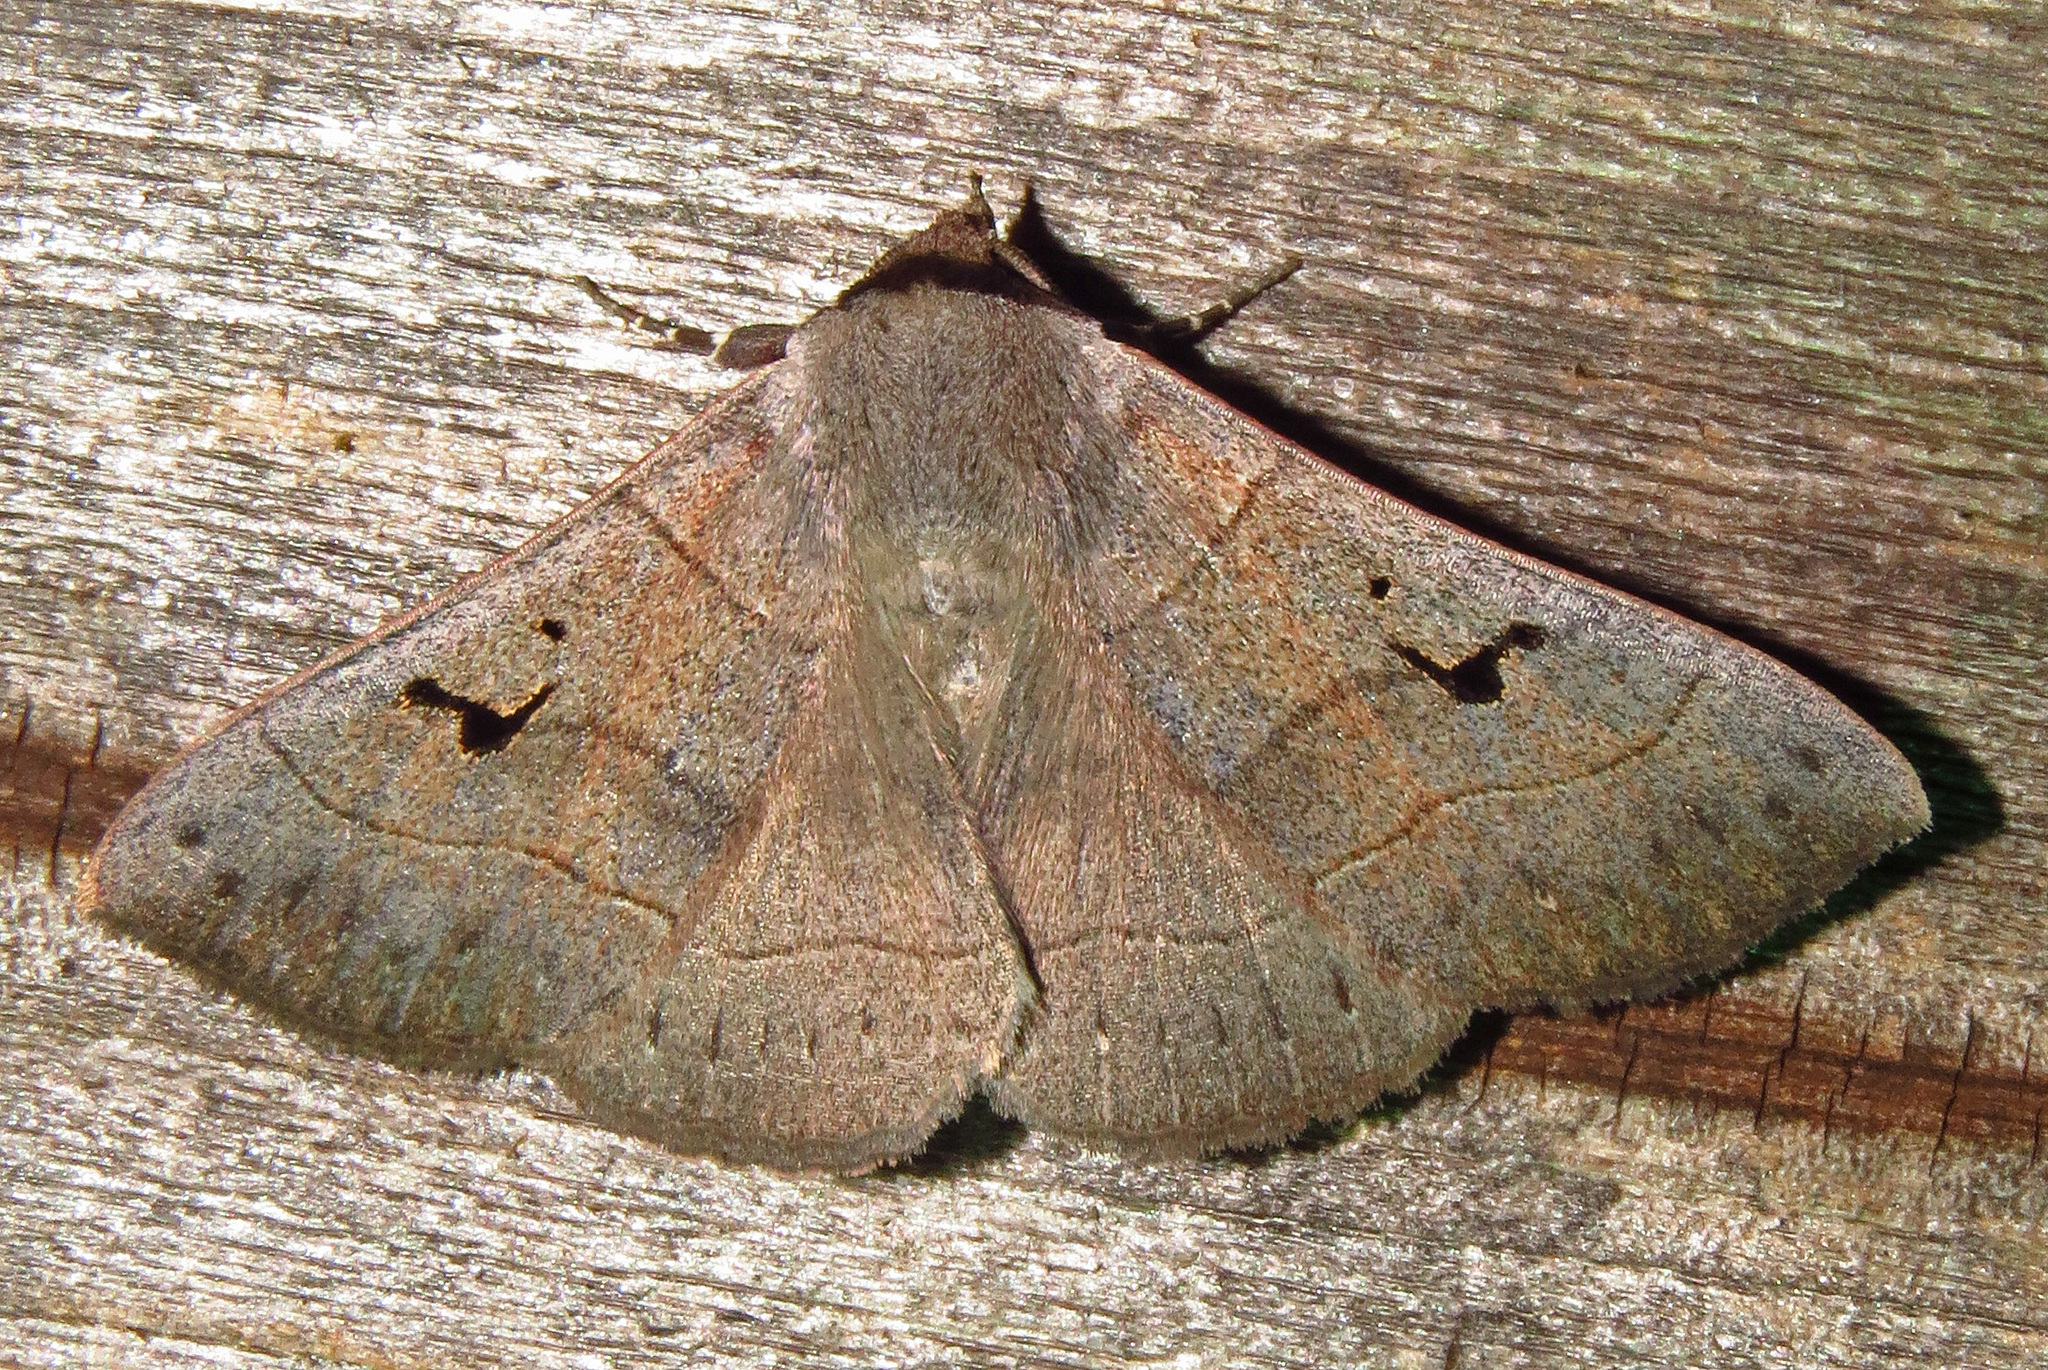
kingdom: Animalia
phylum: Arthropoda
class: Insecta
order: Lepidoptera
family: Erebidae
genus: Panopoda
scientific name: Panopoda carneicosta
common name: Brown panopoda moth
